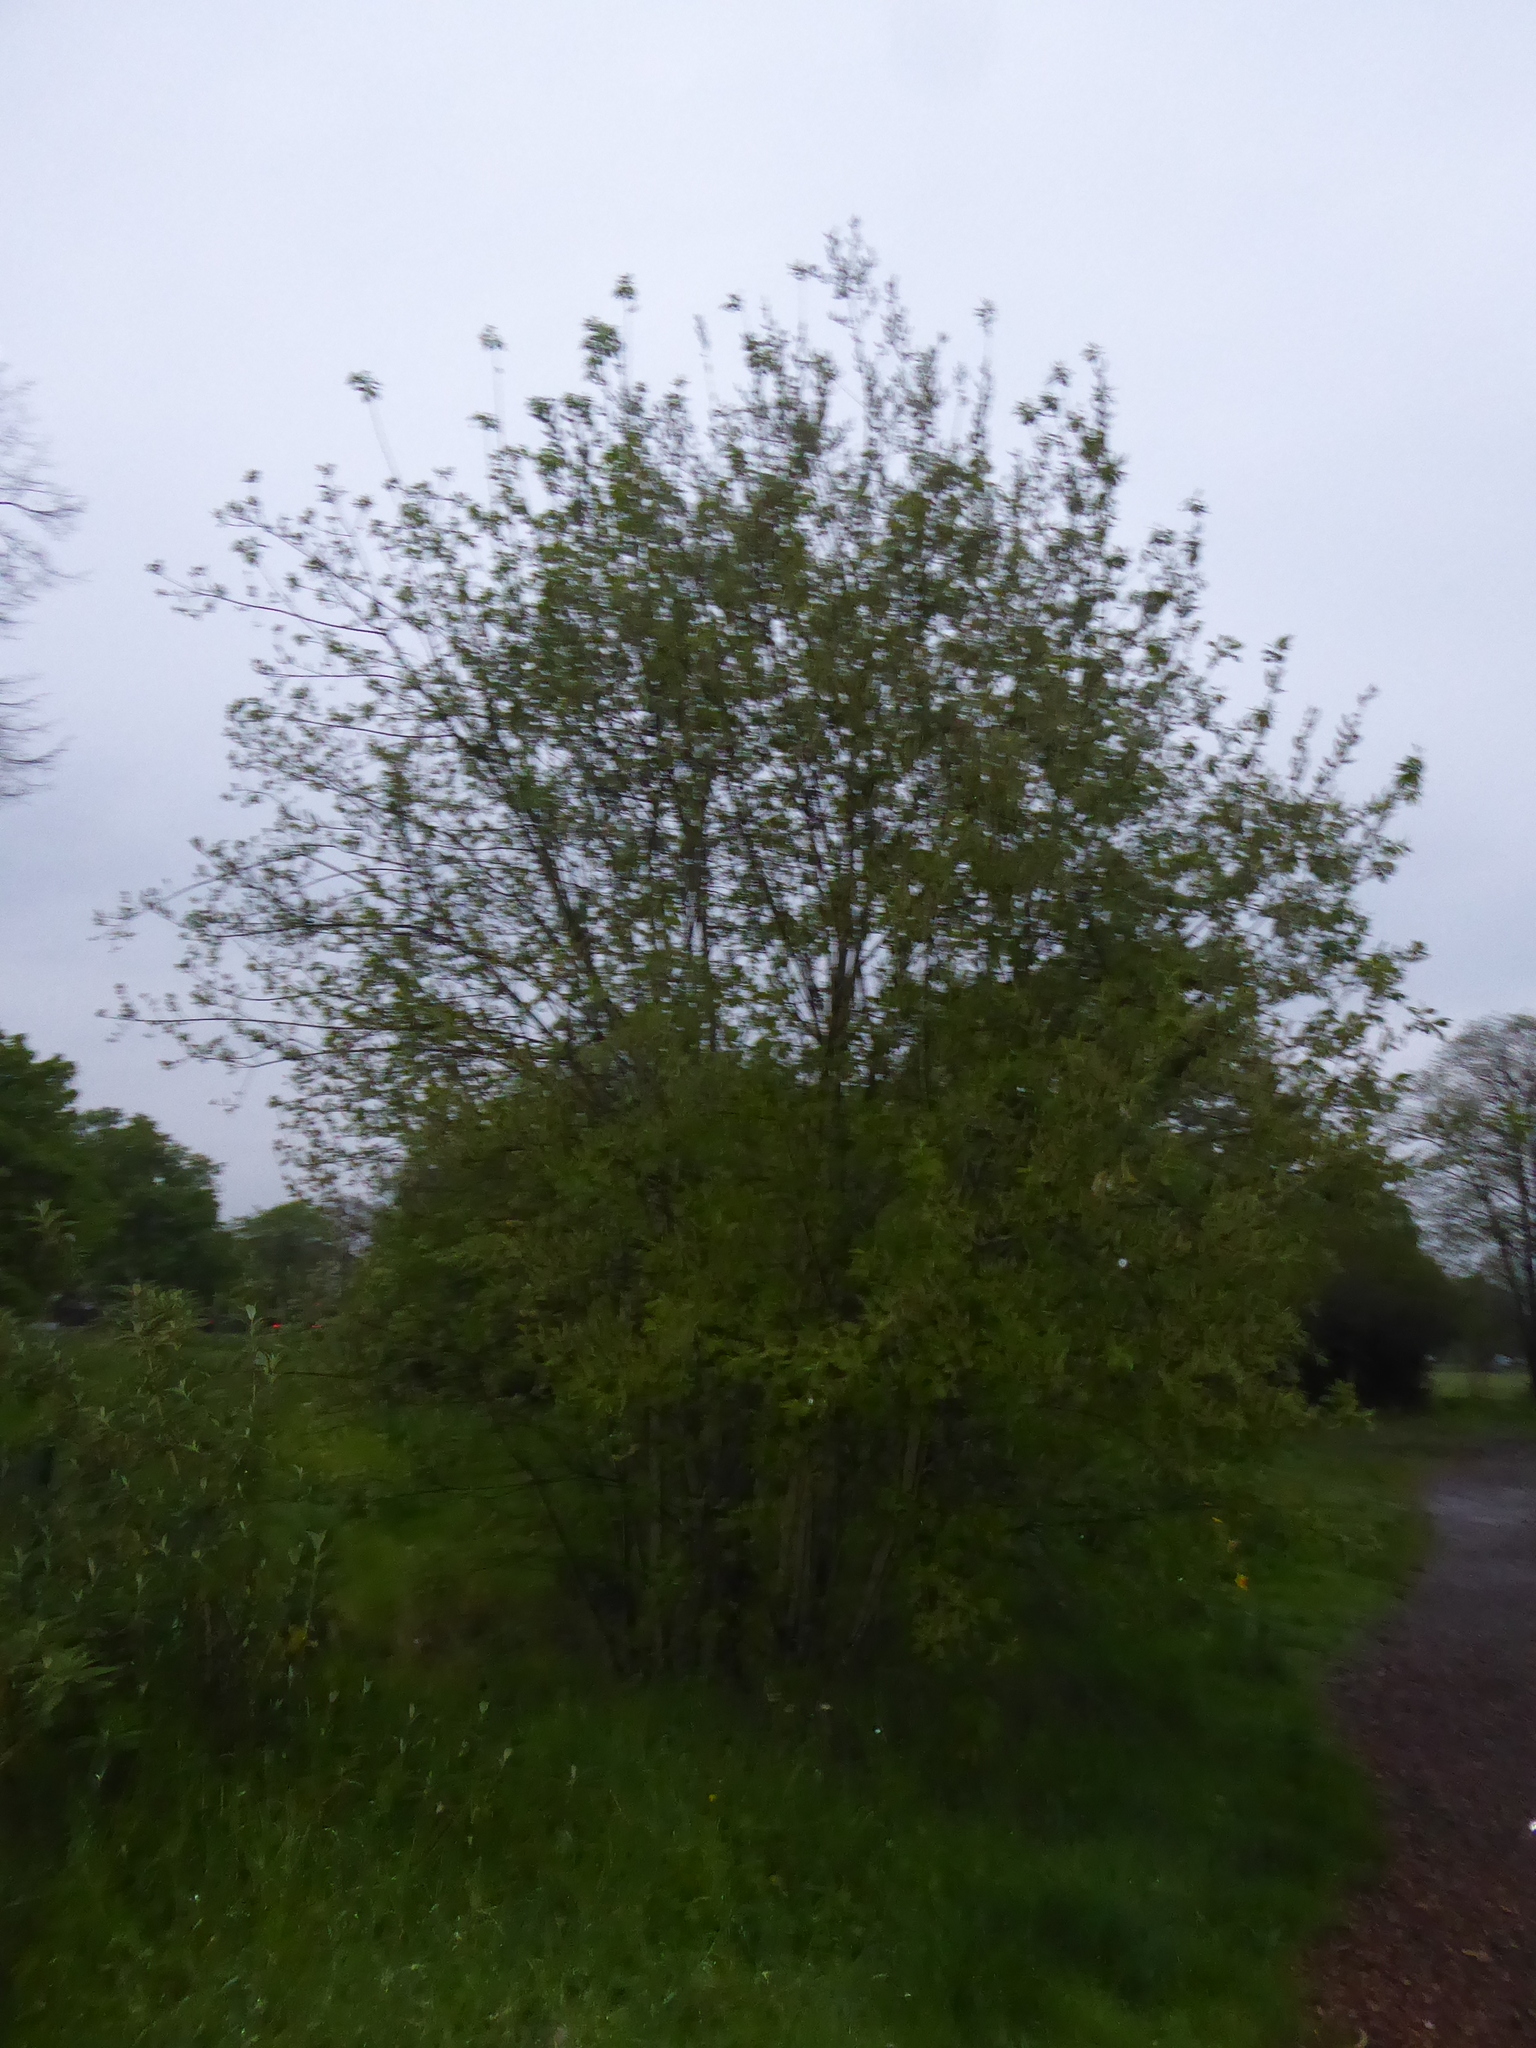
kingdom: Plantae
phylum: Tracheophyta
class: Magnoliopsida
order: Malpighiales
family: Salicaceae
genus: Salix
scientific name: Salix caprea
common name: Goat willow
